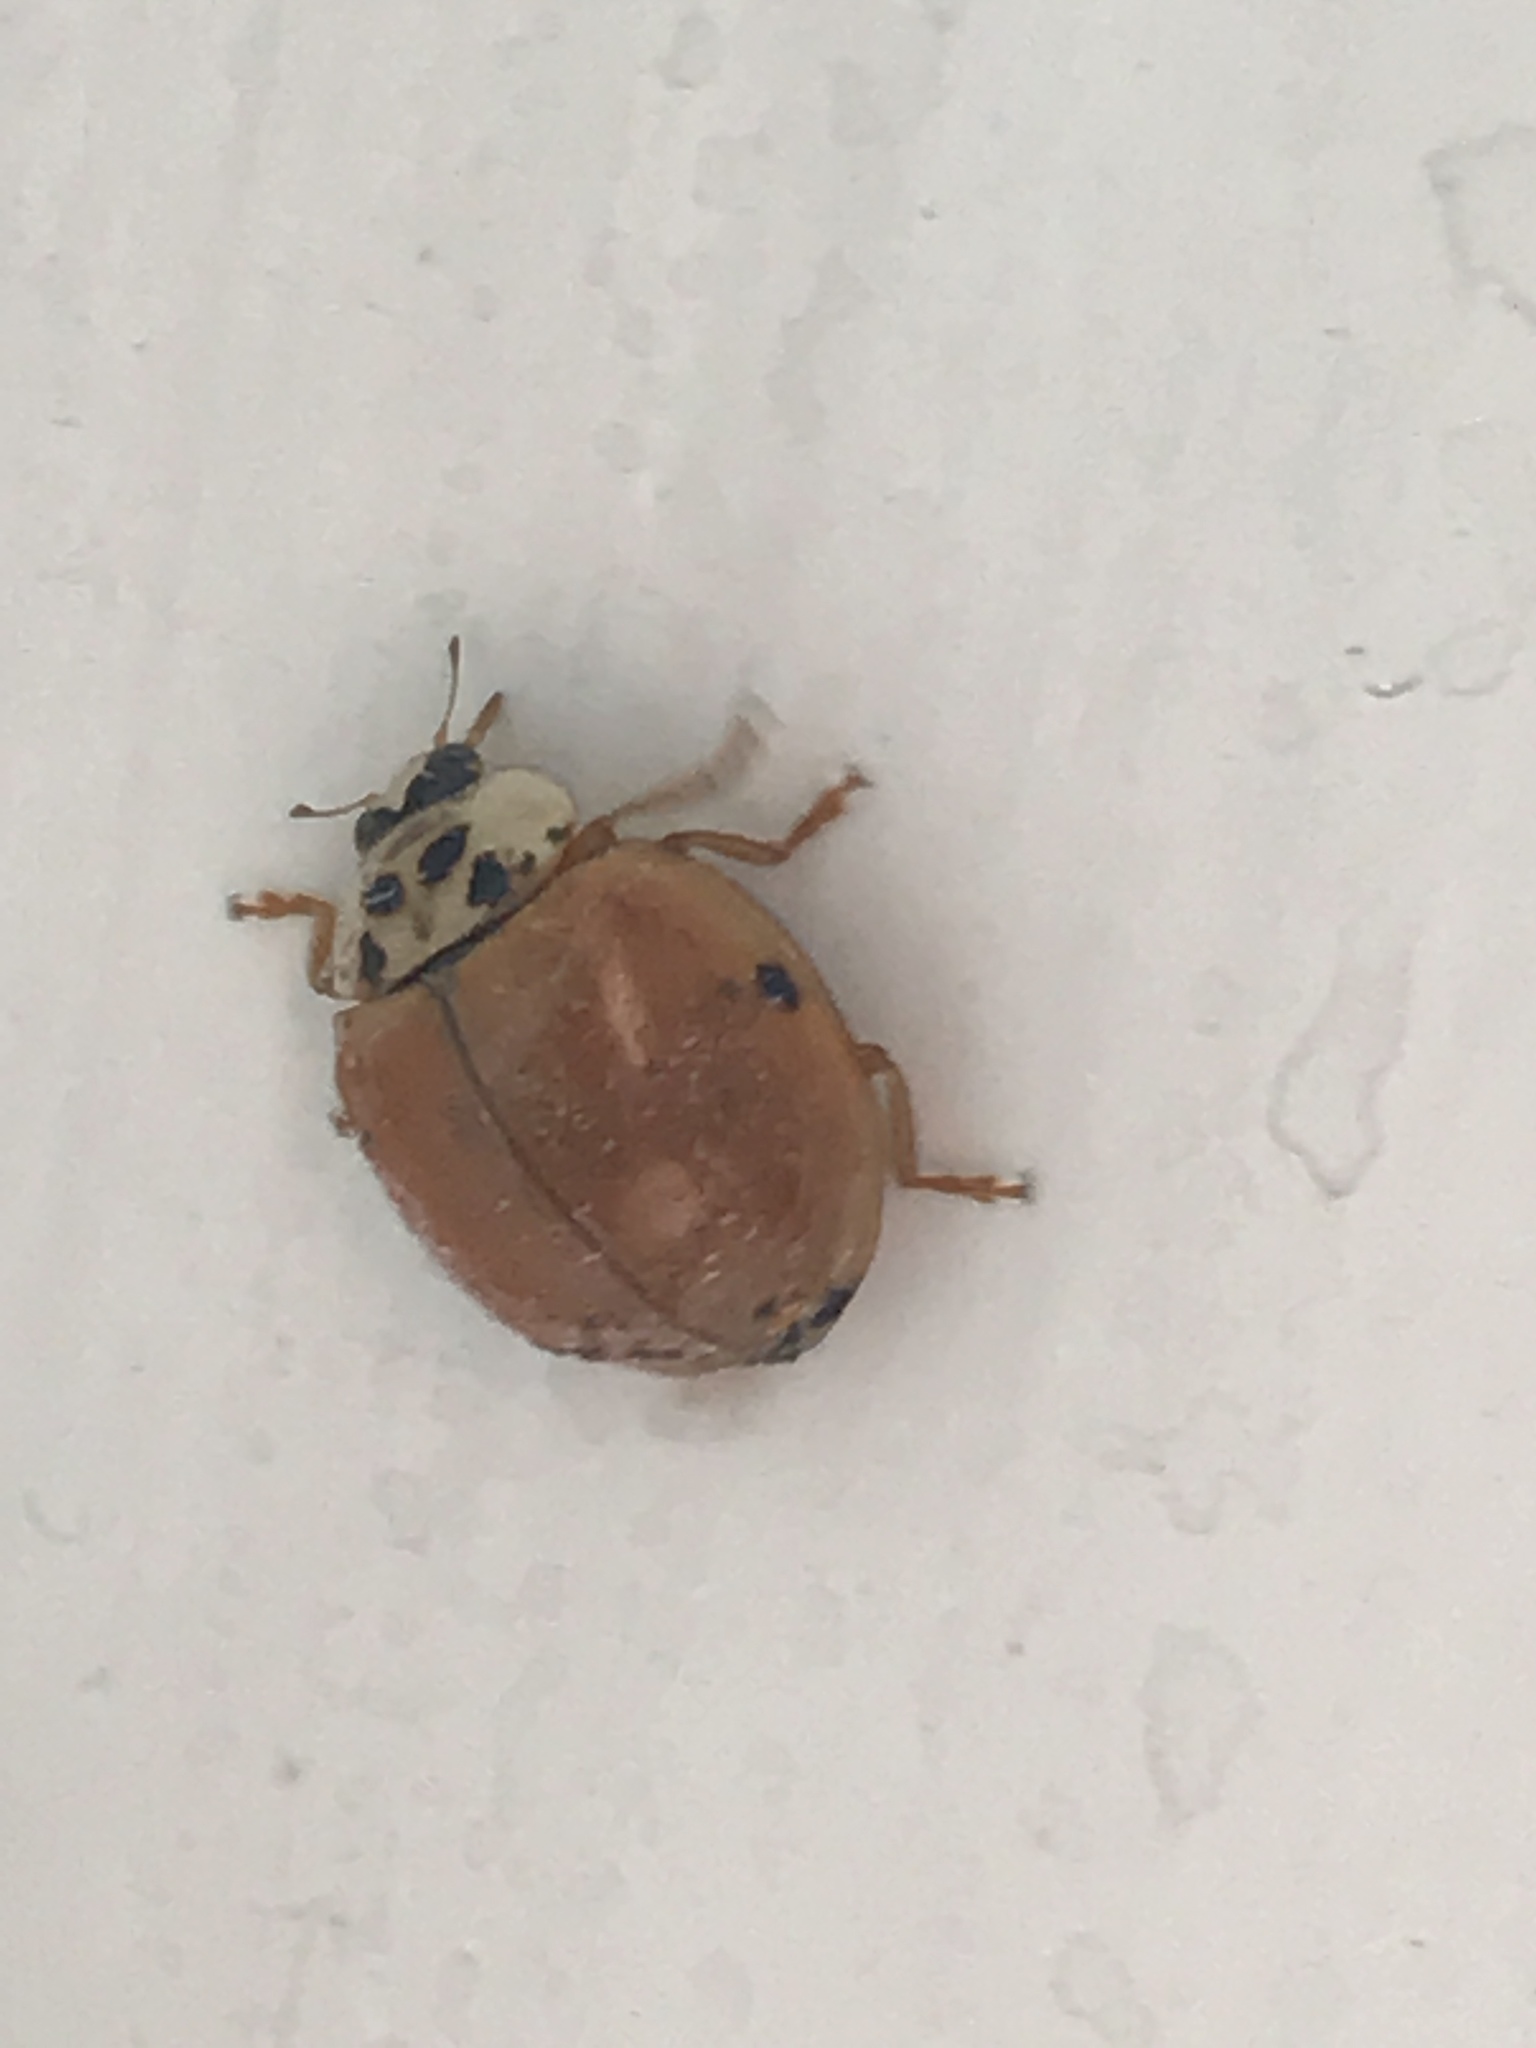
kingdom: Animalia
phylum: Arthropoda
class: Insecta
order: Coleoptera
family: Coccinellidae
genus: Harmonia
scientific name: Harmonia axyridis
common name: Harlequin ladybird
